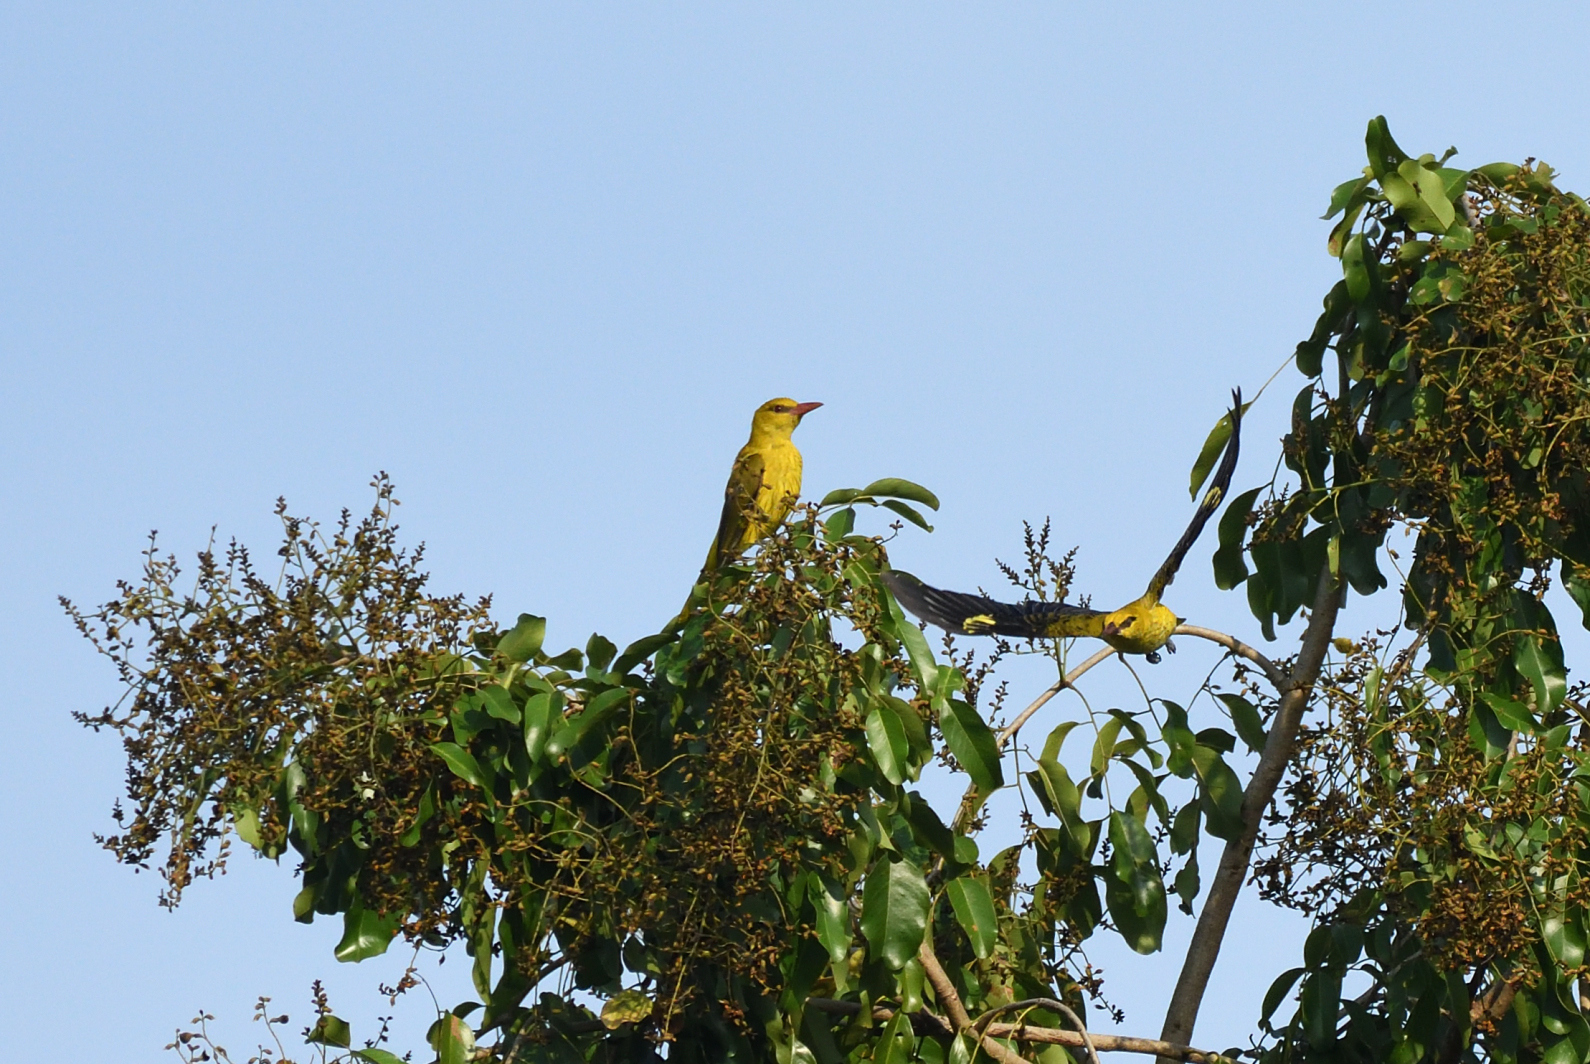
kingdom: Animalia
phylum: Chordata
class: Aves
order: Passeriformes
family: Oriolidae
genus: Oriolus
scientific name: Oriolus kundoo
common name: Indian golden oriole
